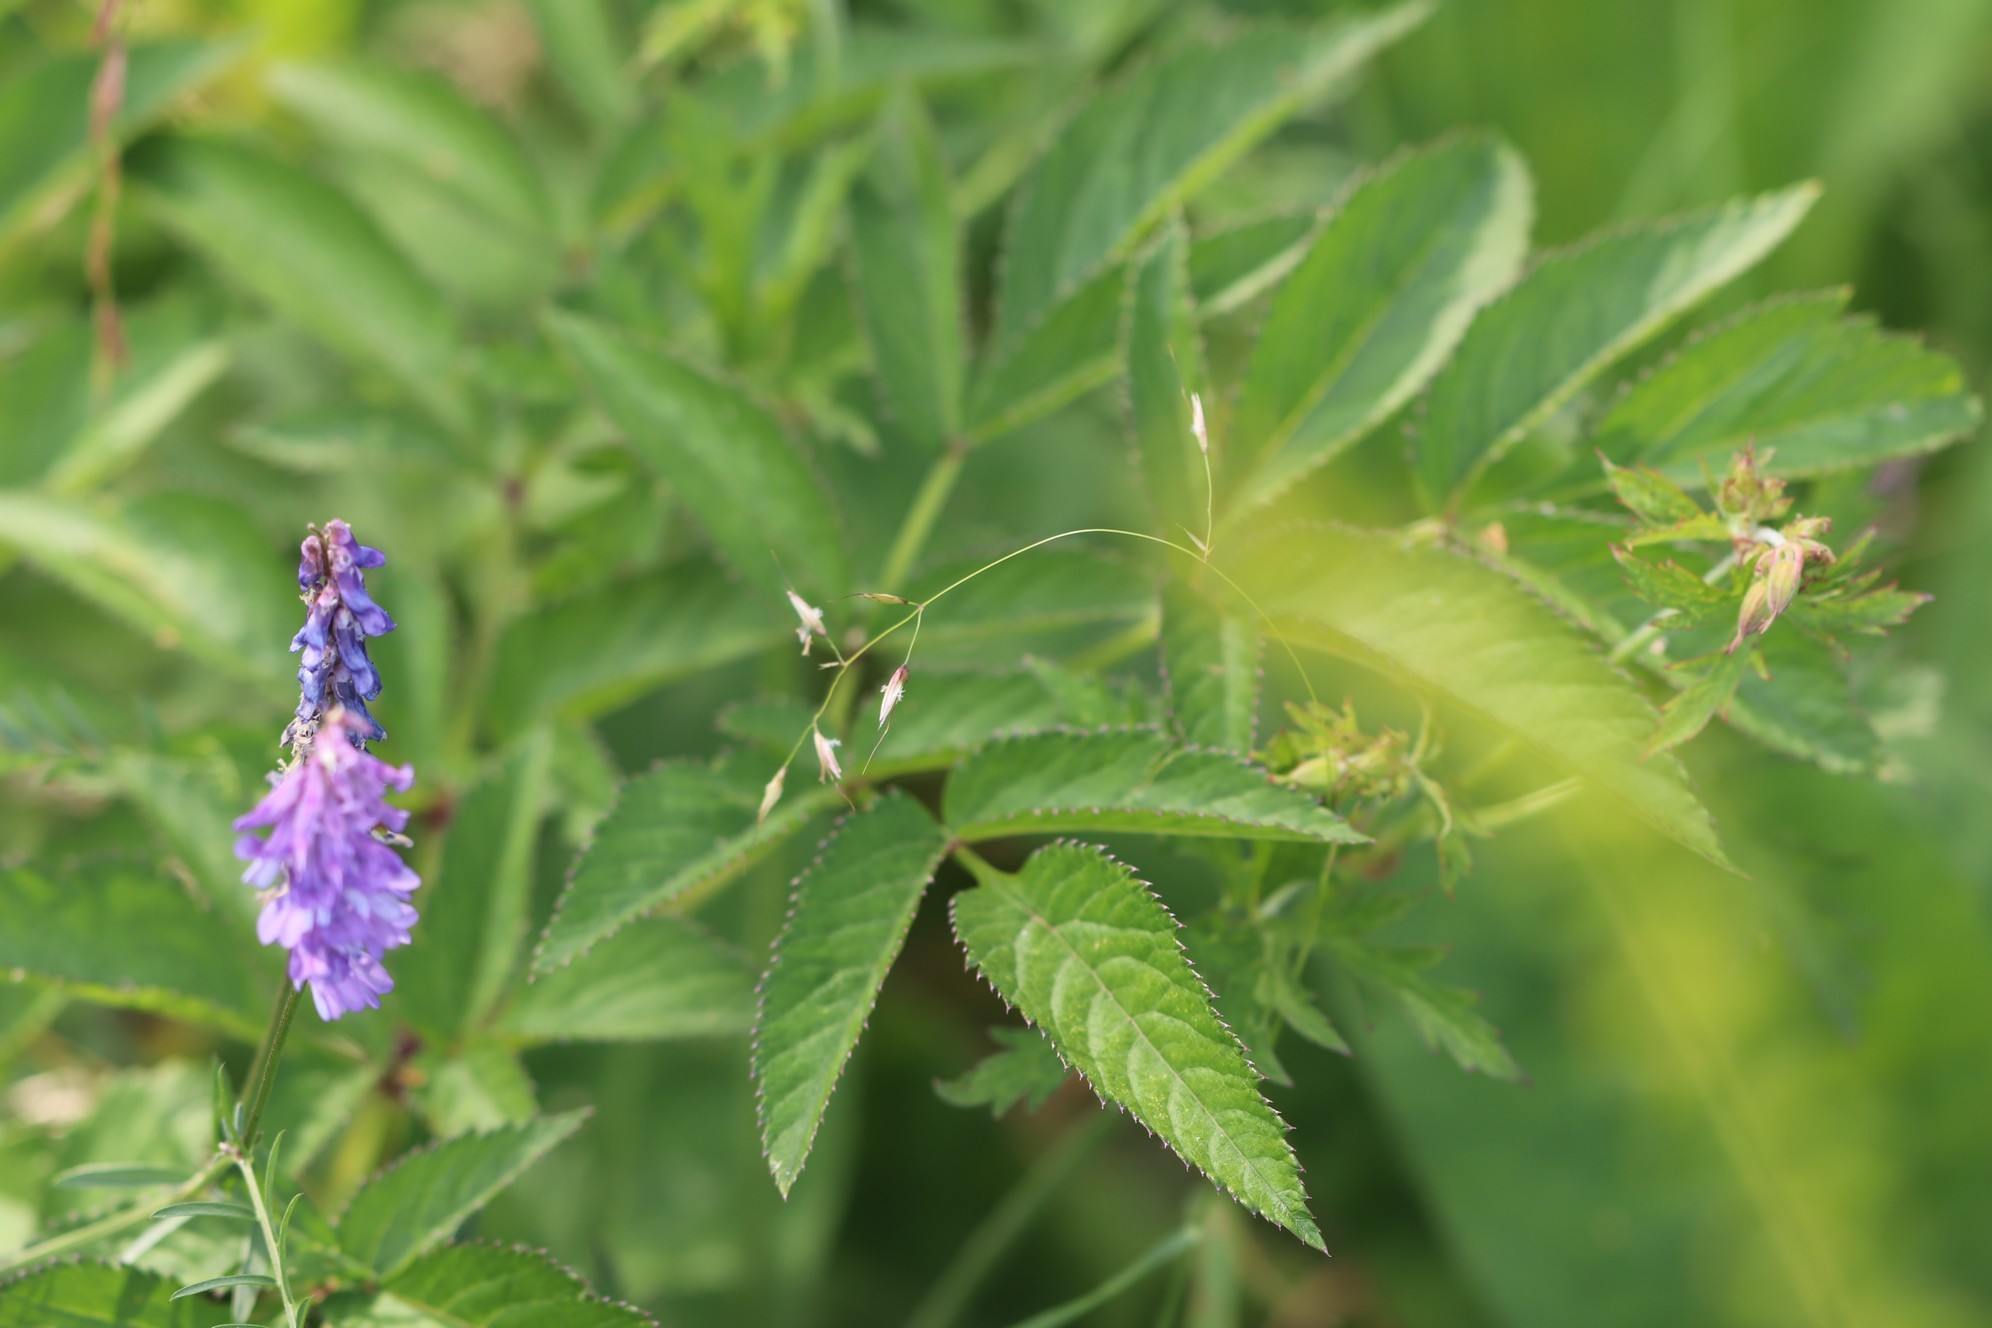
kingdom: Plantae
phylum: Tracheophyta
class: Magnoliopsida
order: Apiales
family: Apiaceae
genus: Angelica
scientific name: Angelica sylvestris
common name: Wild angelica
